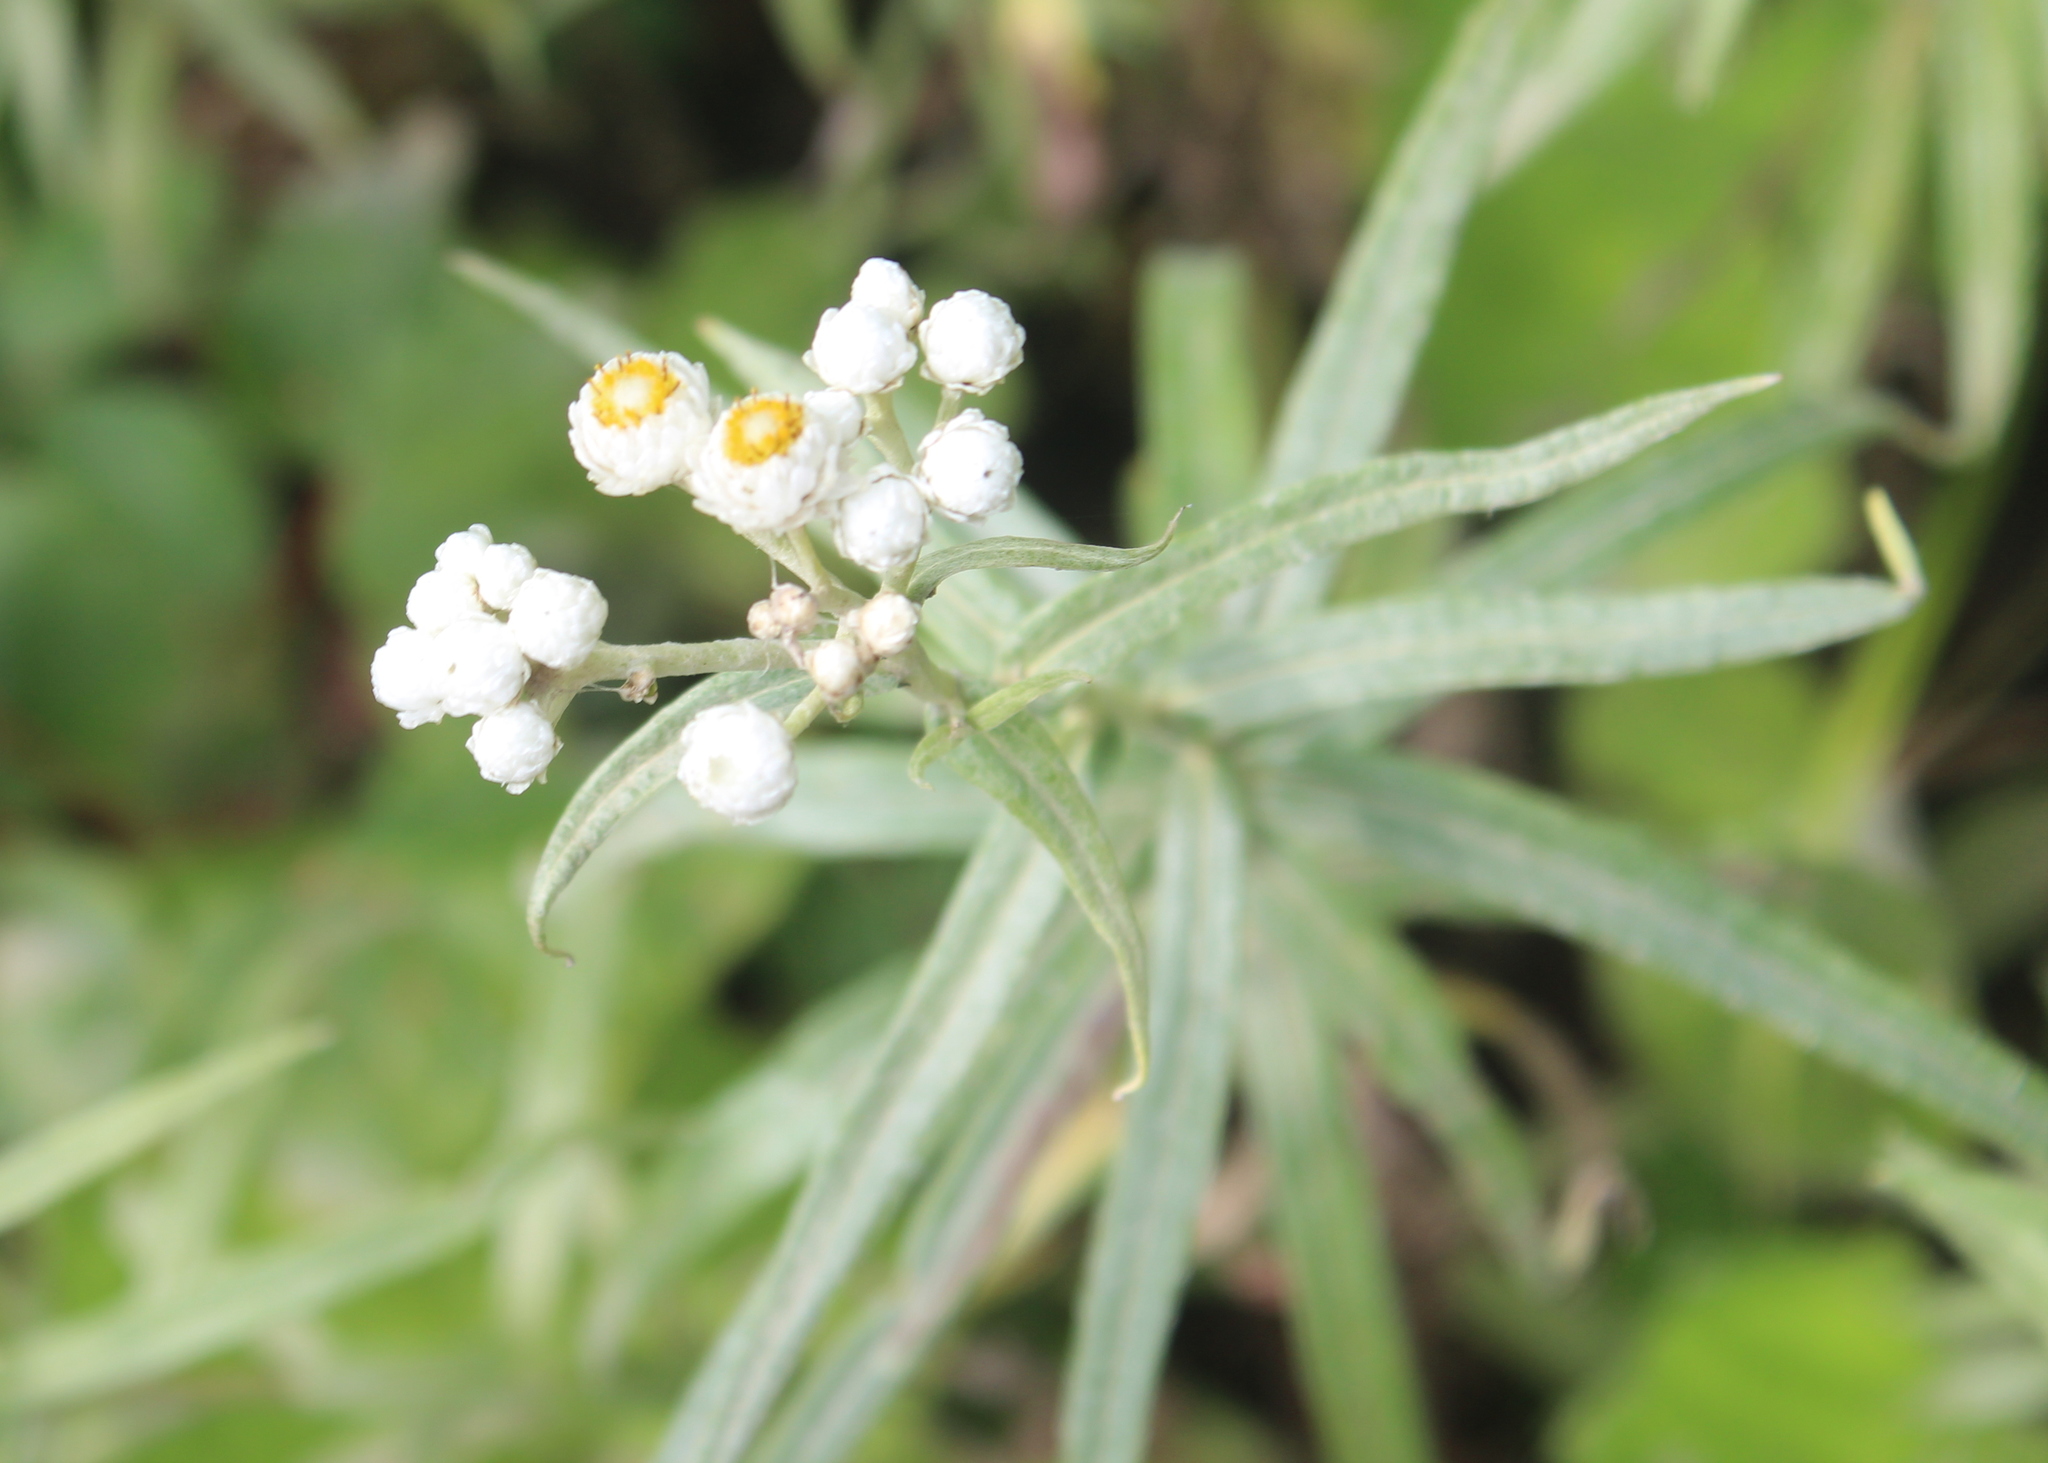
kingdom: Plantae
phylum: Tracheophyta
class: Magnoliopsida
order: Asterales
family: Asteraceae
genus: Anaphalis
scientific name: Anaphalis margaritacea
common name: Pearly everlasting
